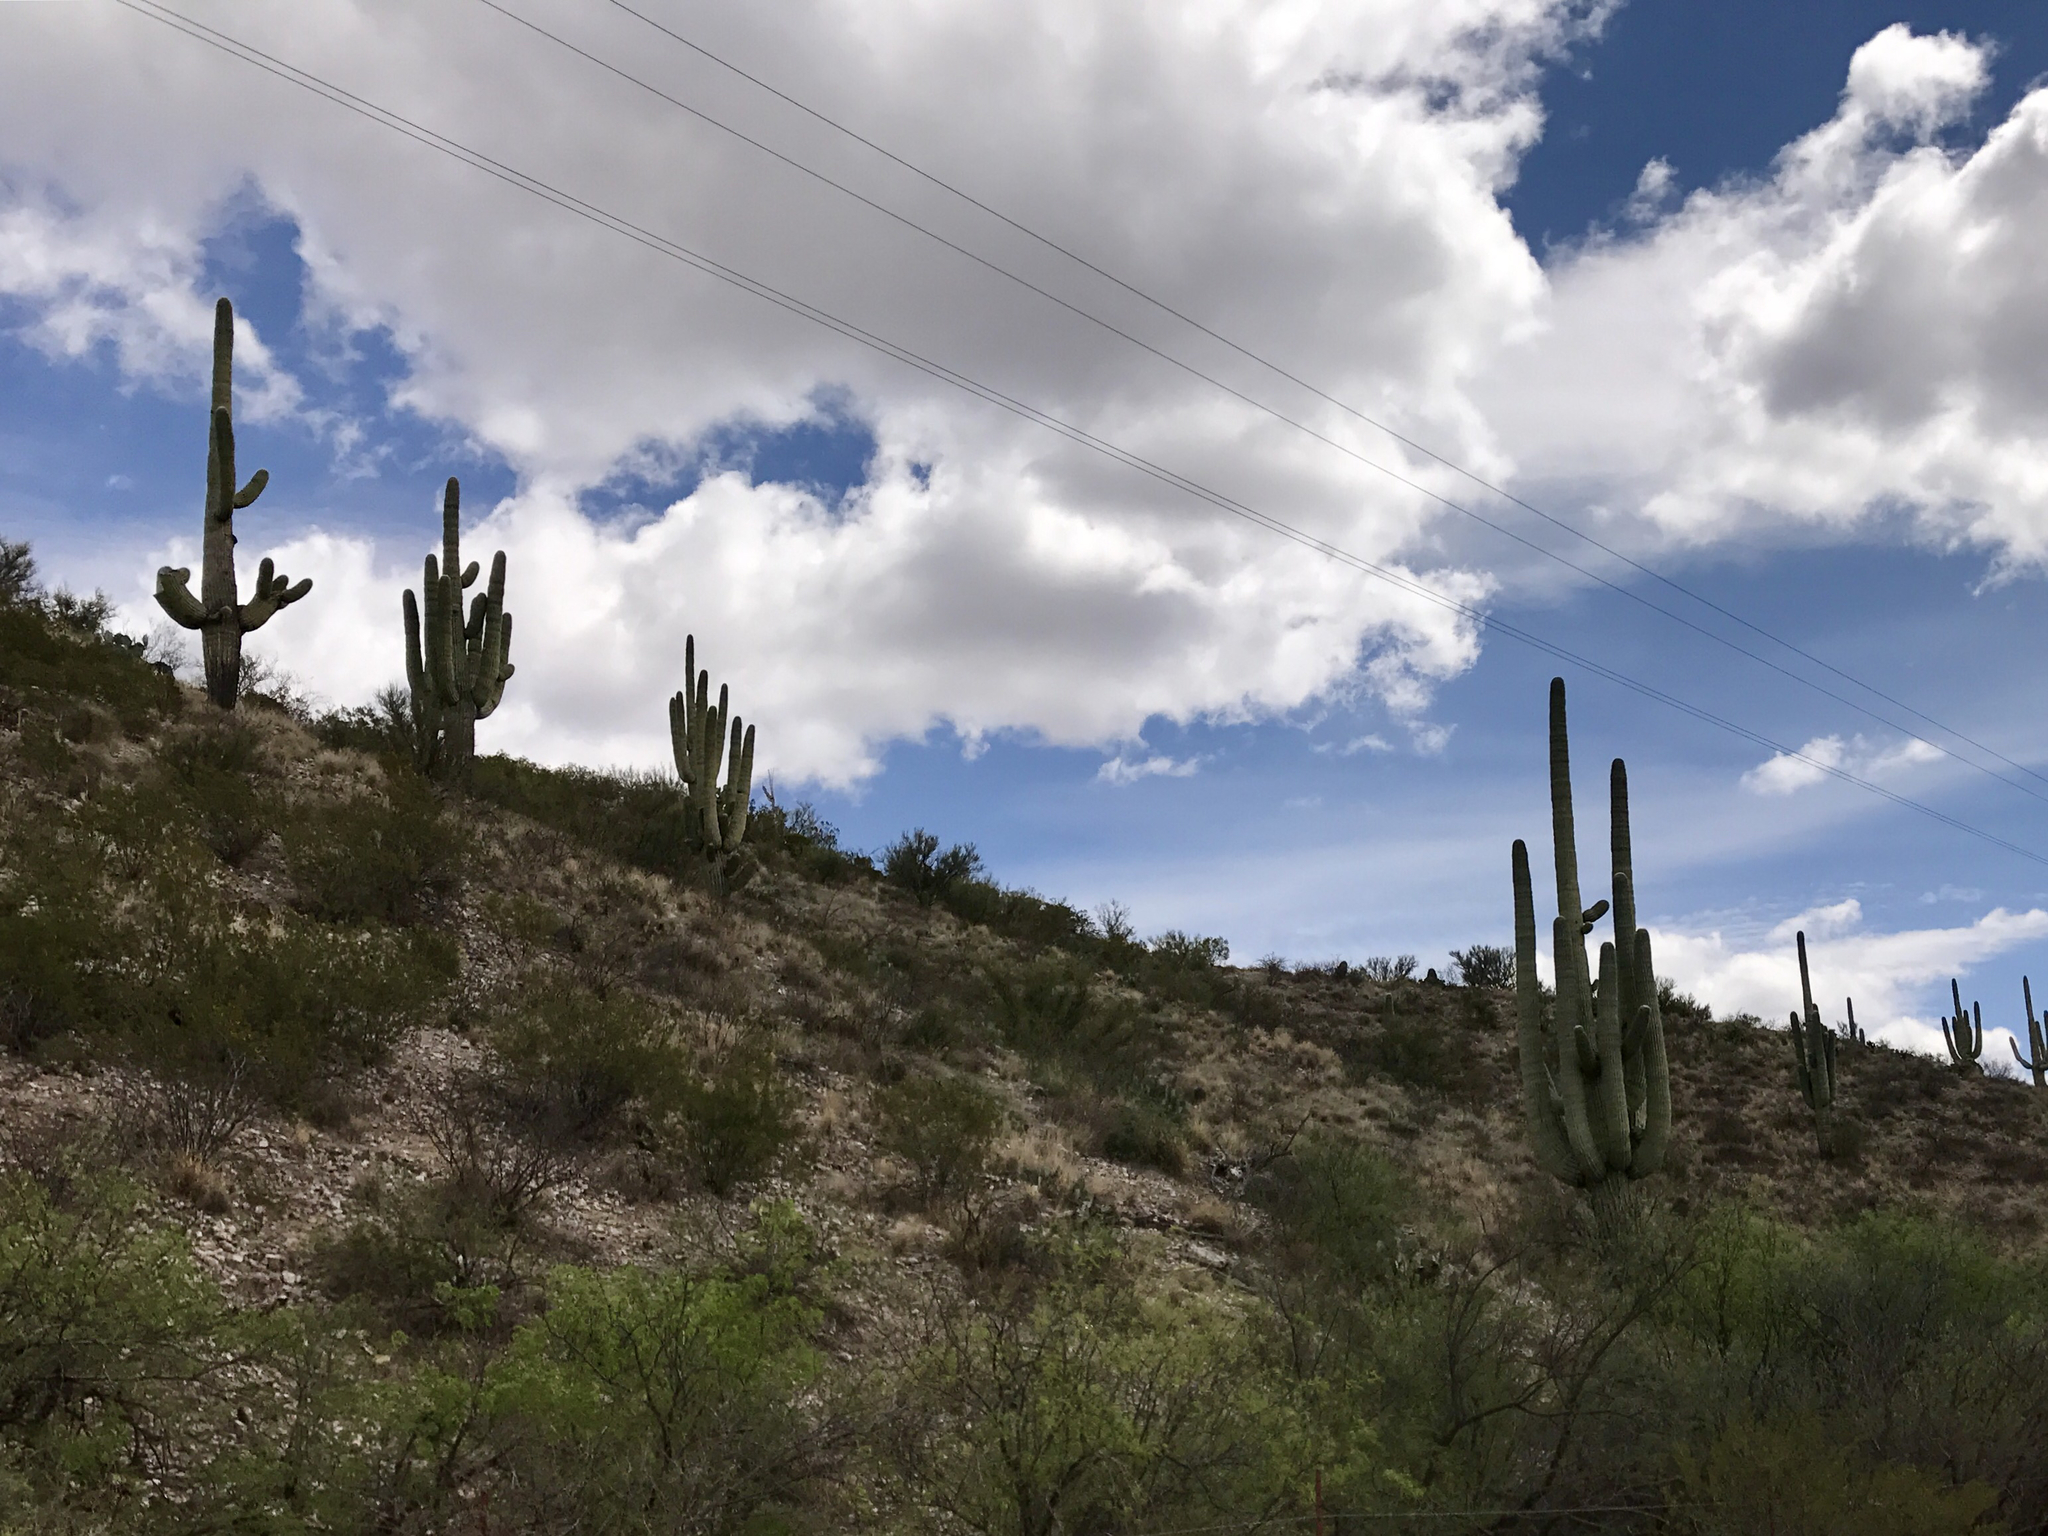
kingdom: Plantae
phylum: Tracheophyta
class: Magnoliopsida
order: Caryophyllales
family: Cactaceae
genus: Carnegiea
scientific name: Carnegiea gigantea
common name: Saguaro
